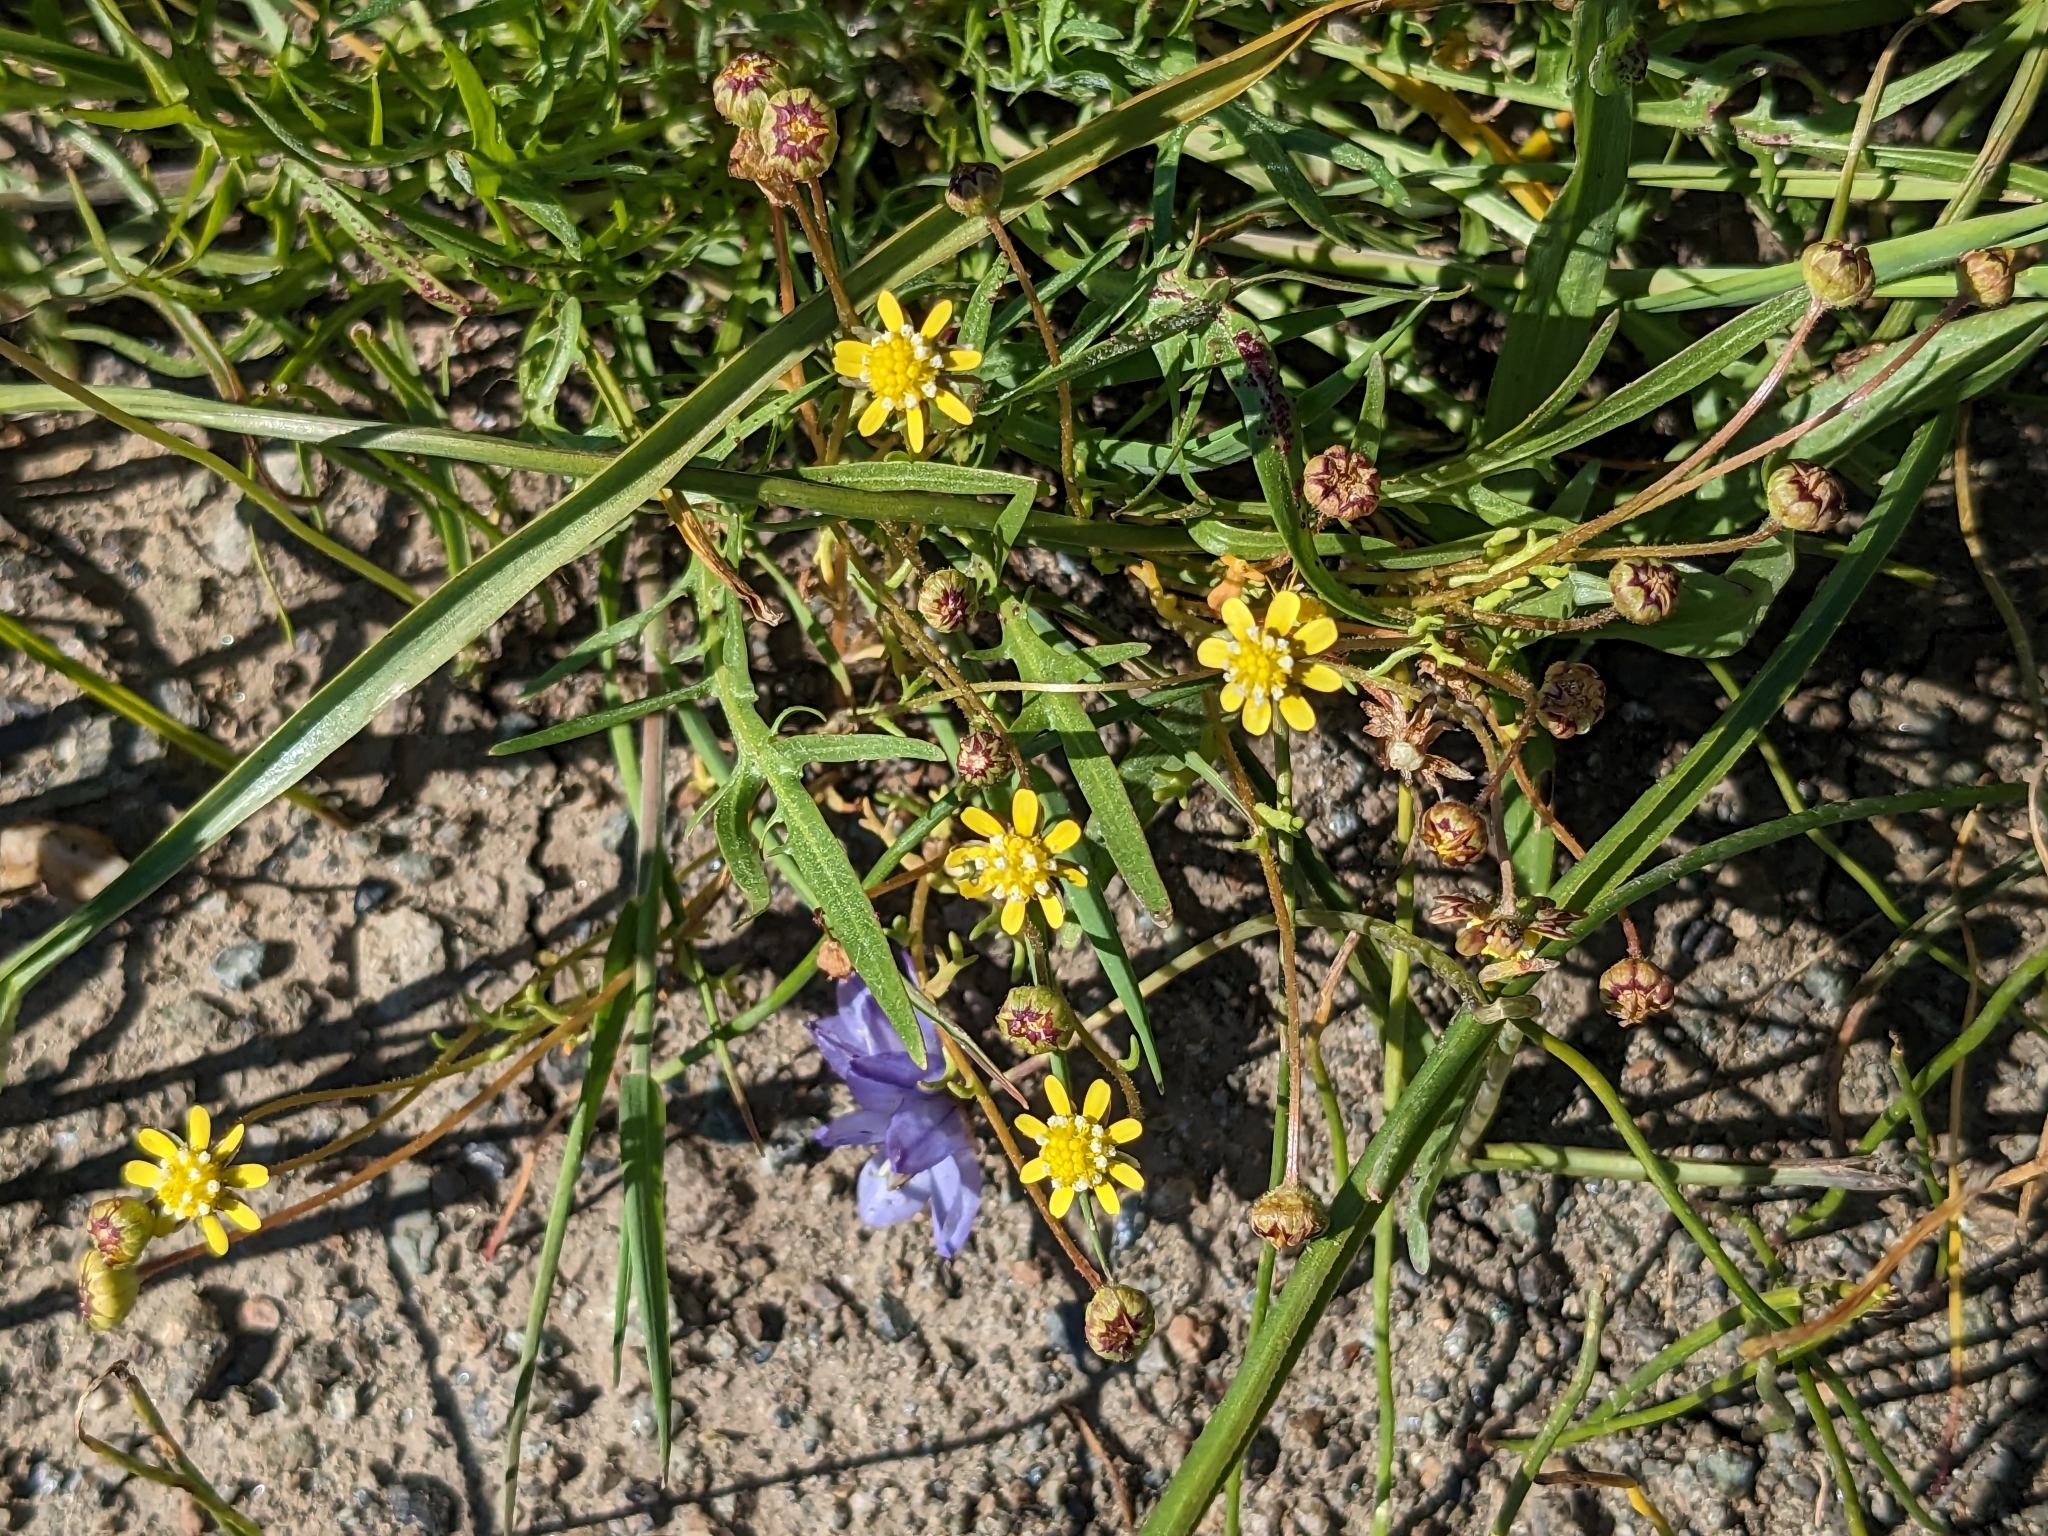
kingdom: Plantae
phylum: Tracheophyta
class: Magnoliopsida
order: Asterales
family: Asteraceae
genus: Blennosperma
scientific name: Blennosperma nanum
